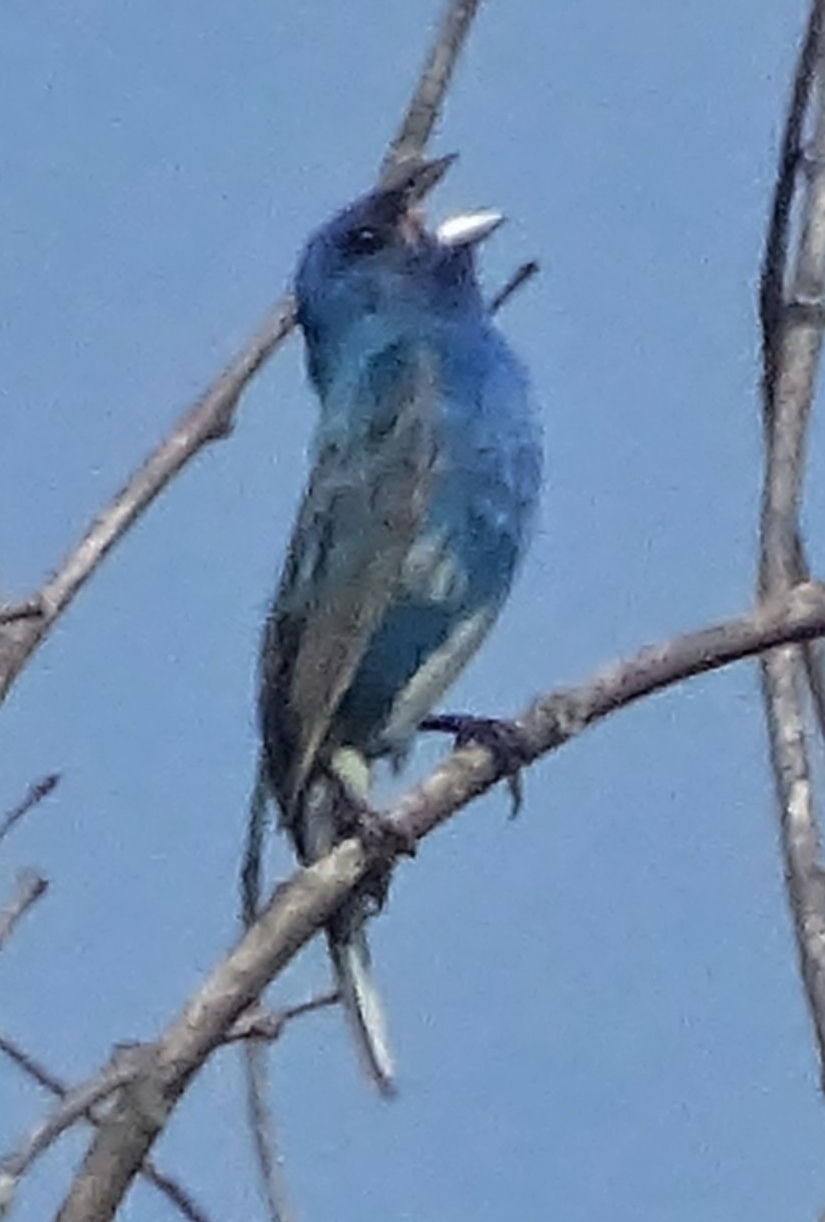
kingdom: Animalia
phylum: Chordata
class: Aves
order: Passeriformes
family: Cardinalidae
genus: Passerina
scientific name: Passerina cyanea
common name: Indigo bunting
